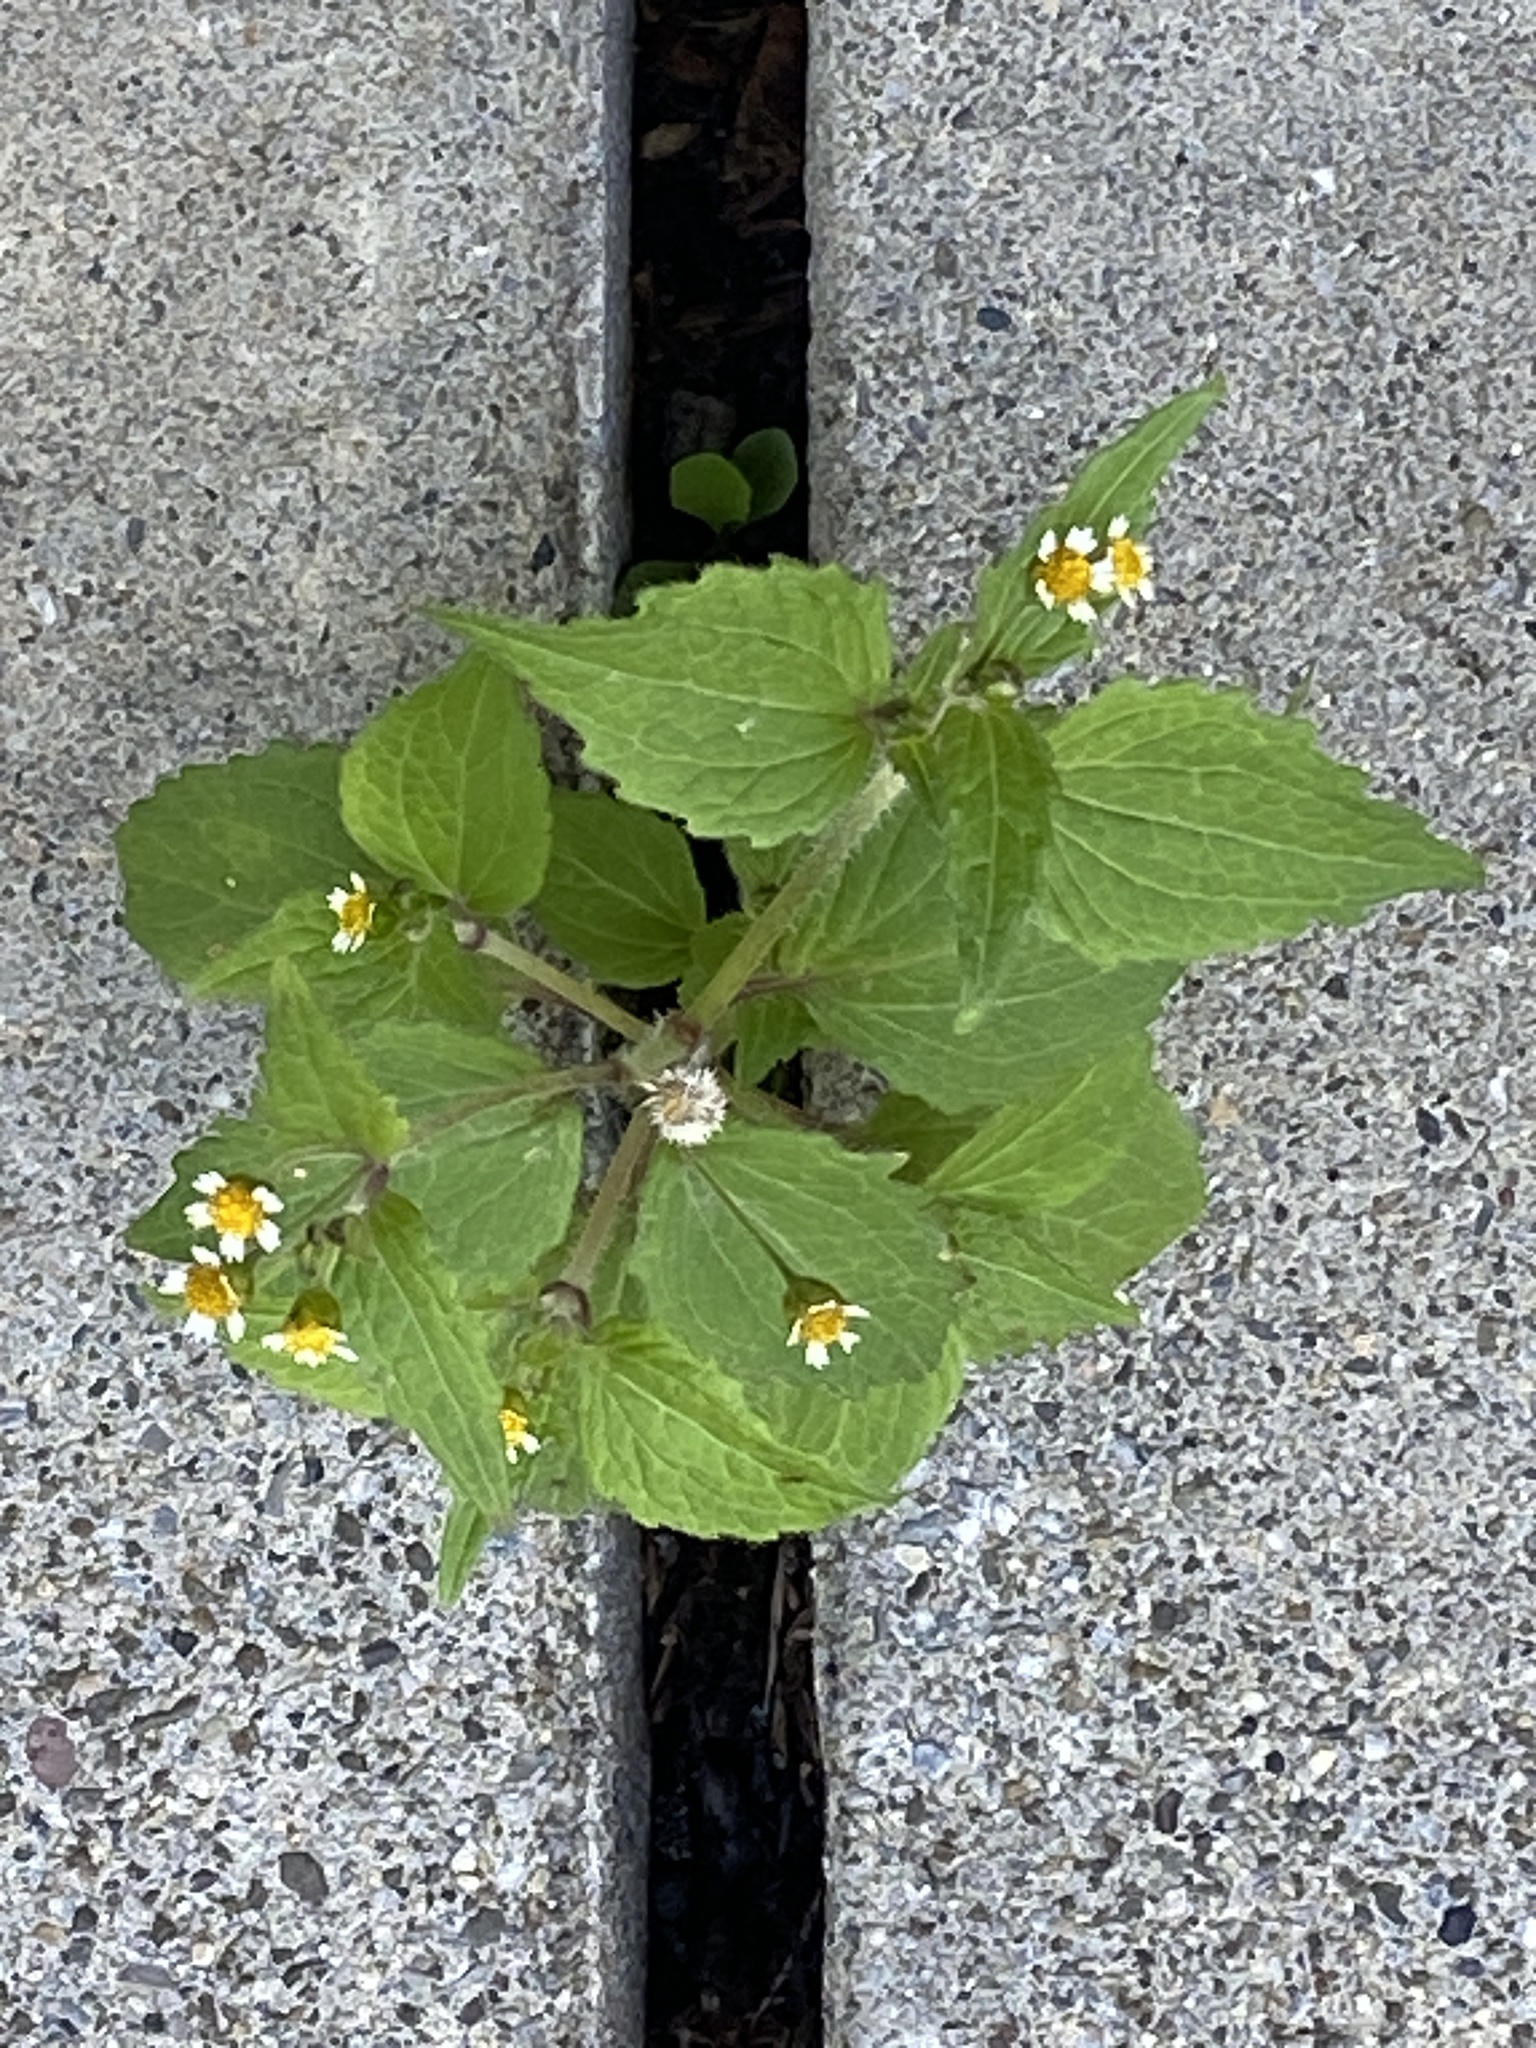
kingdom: Plantae
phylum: Tracheophyta
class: Magnoliopsida
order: Asterales
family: Asteraceae
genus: Galinsoga
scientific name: Galinsoga quadriradiata
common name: Shaggy soldier
